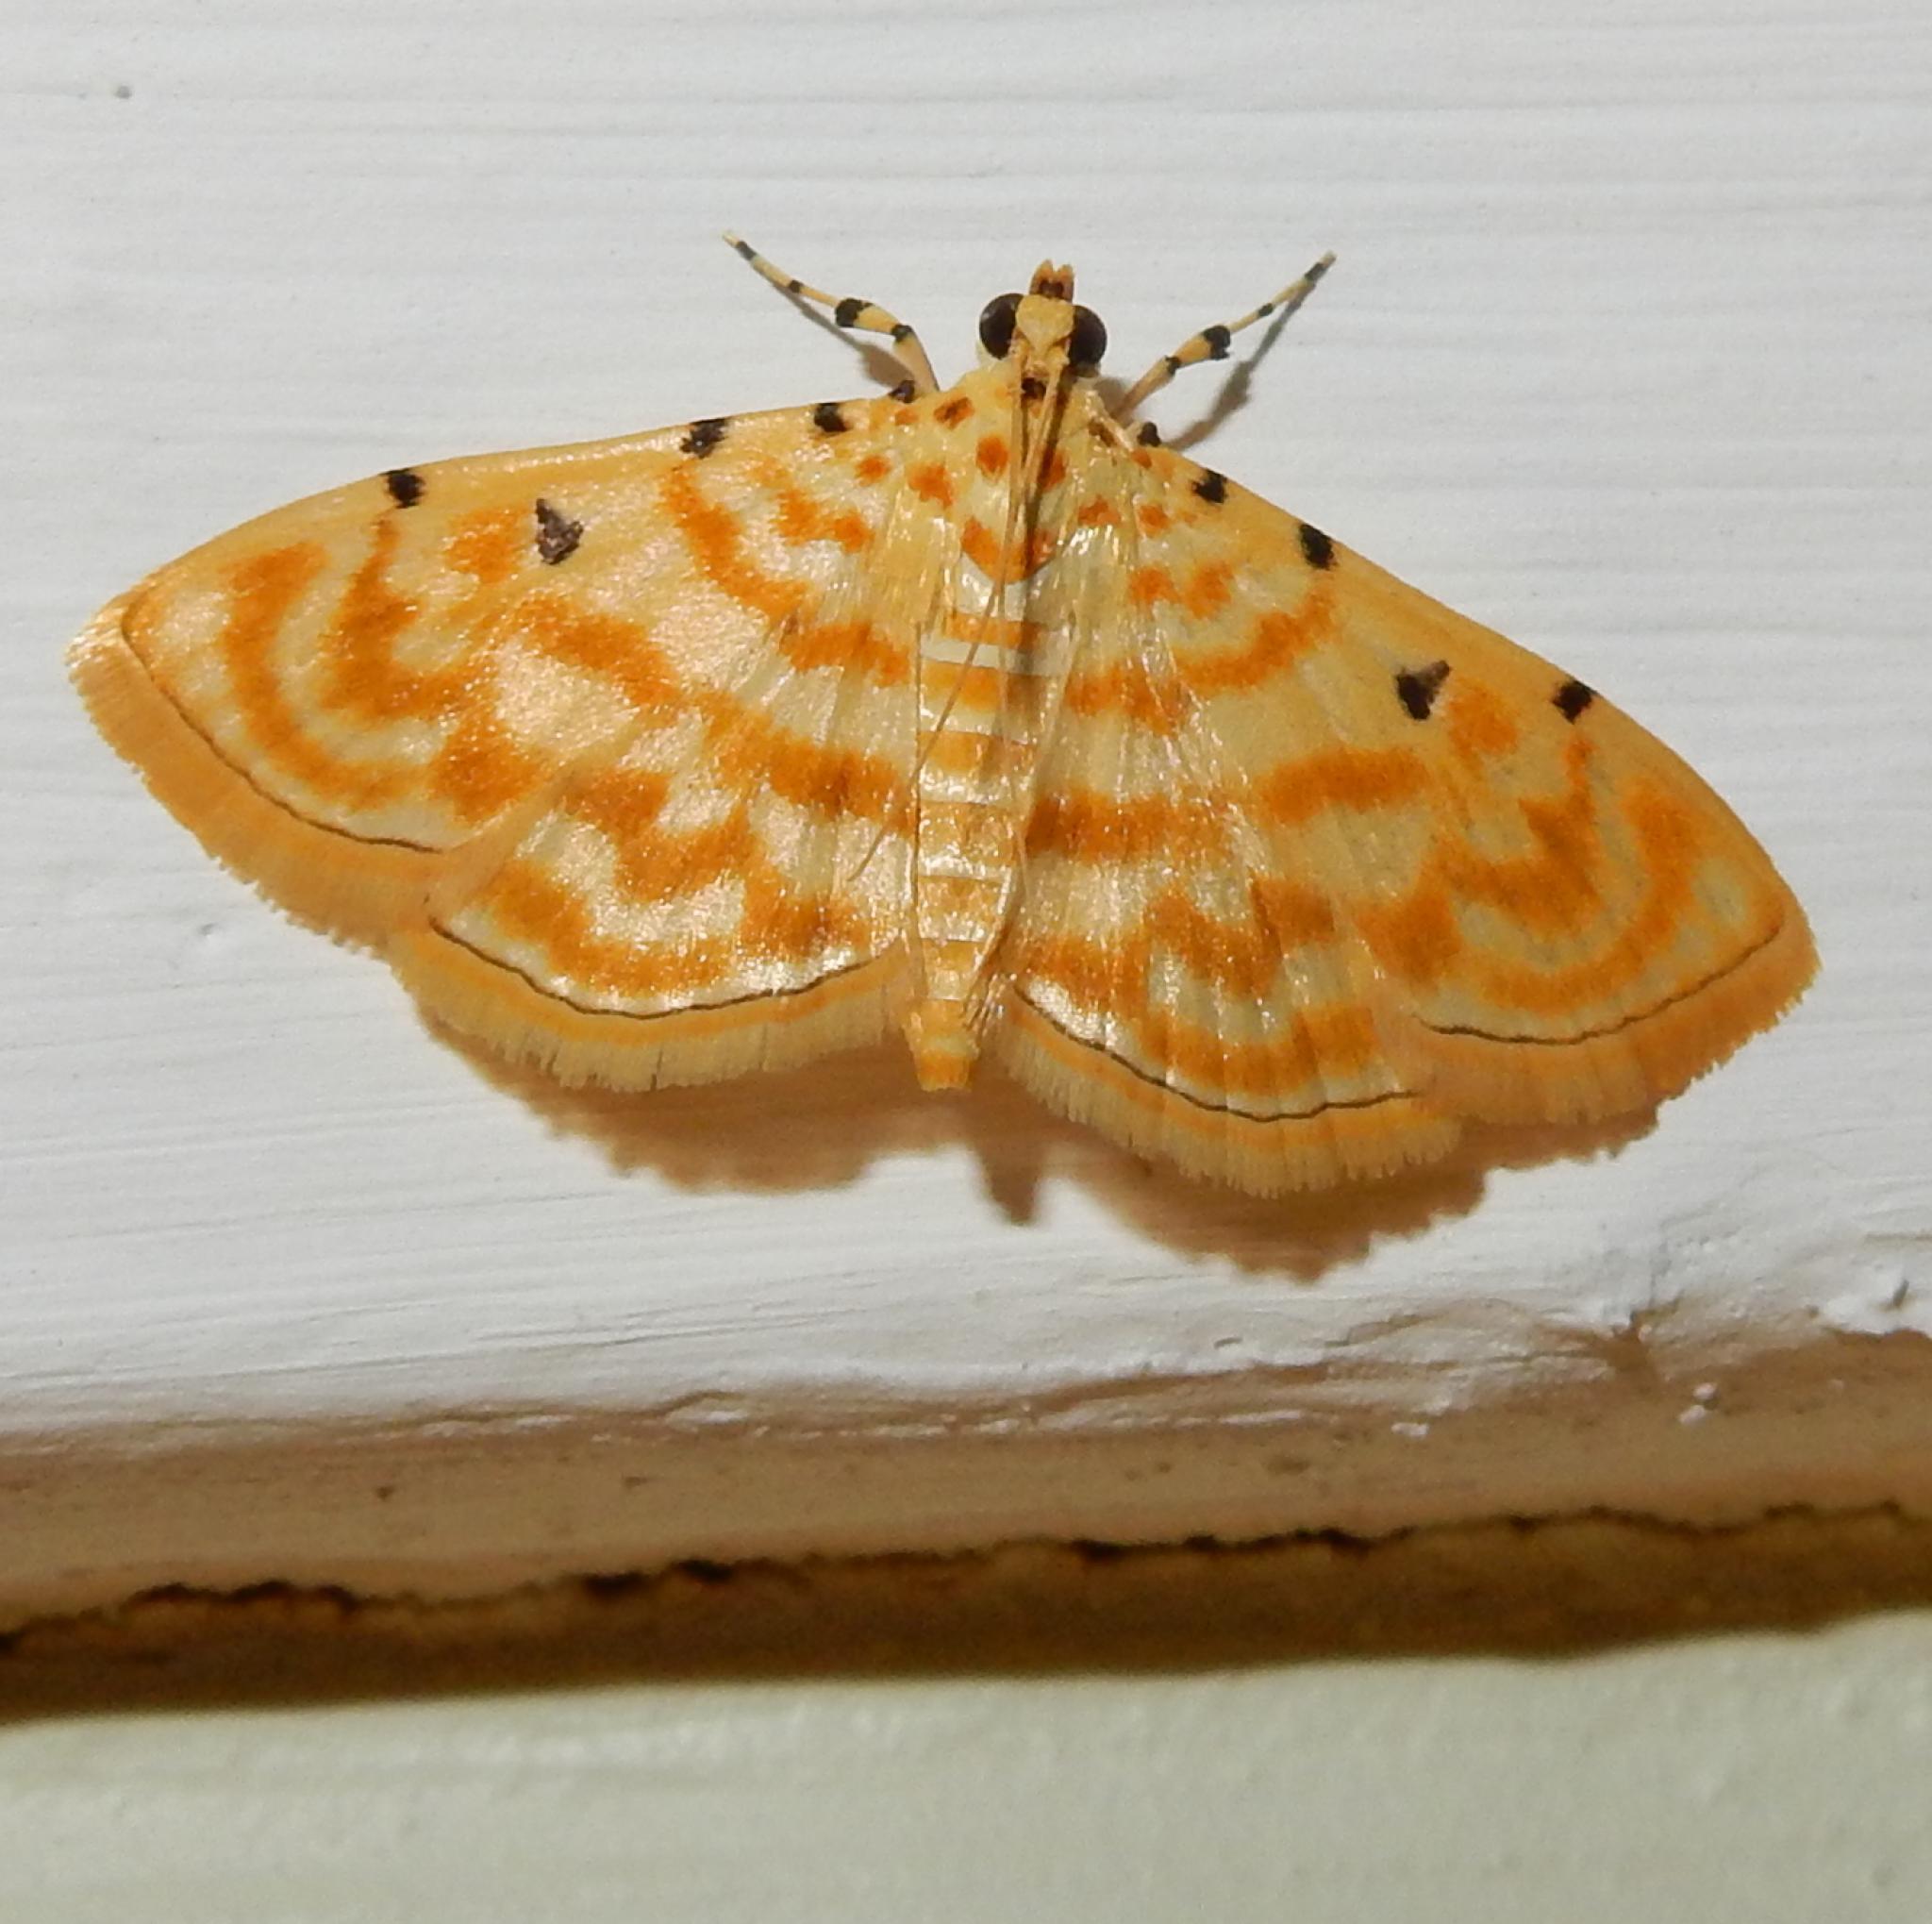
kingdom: Animalia
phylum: Arthropoda
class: Insecta
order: Lepidoptera
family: Crambidae
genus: Notarcha
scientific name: Notarcha quaternalis
